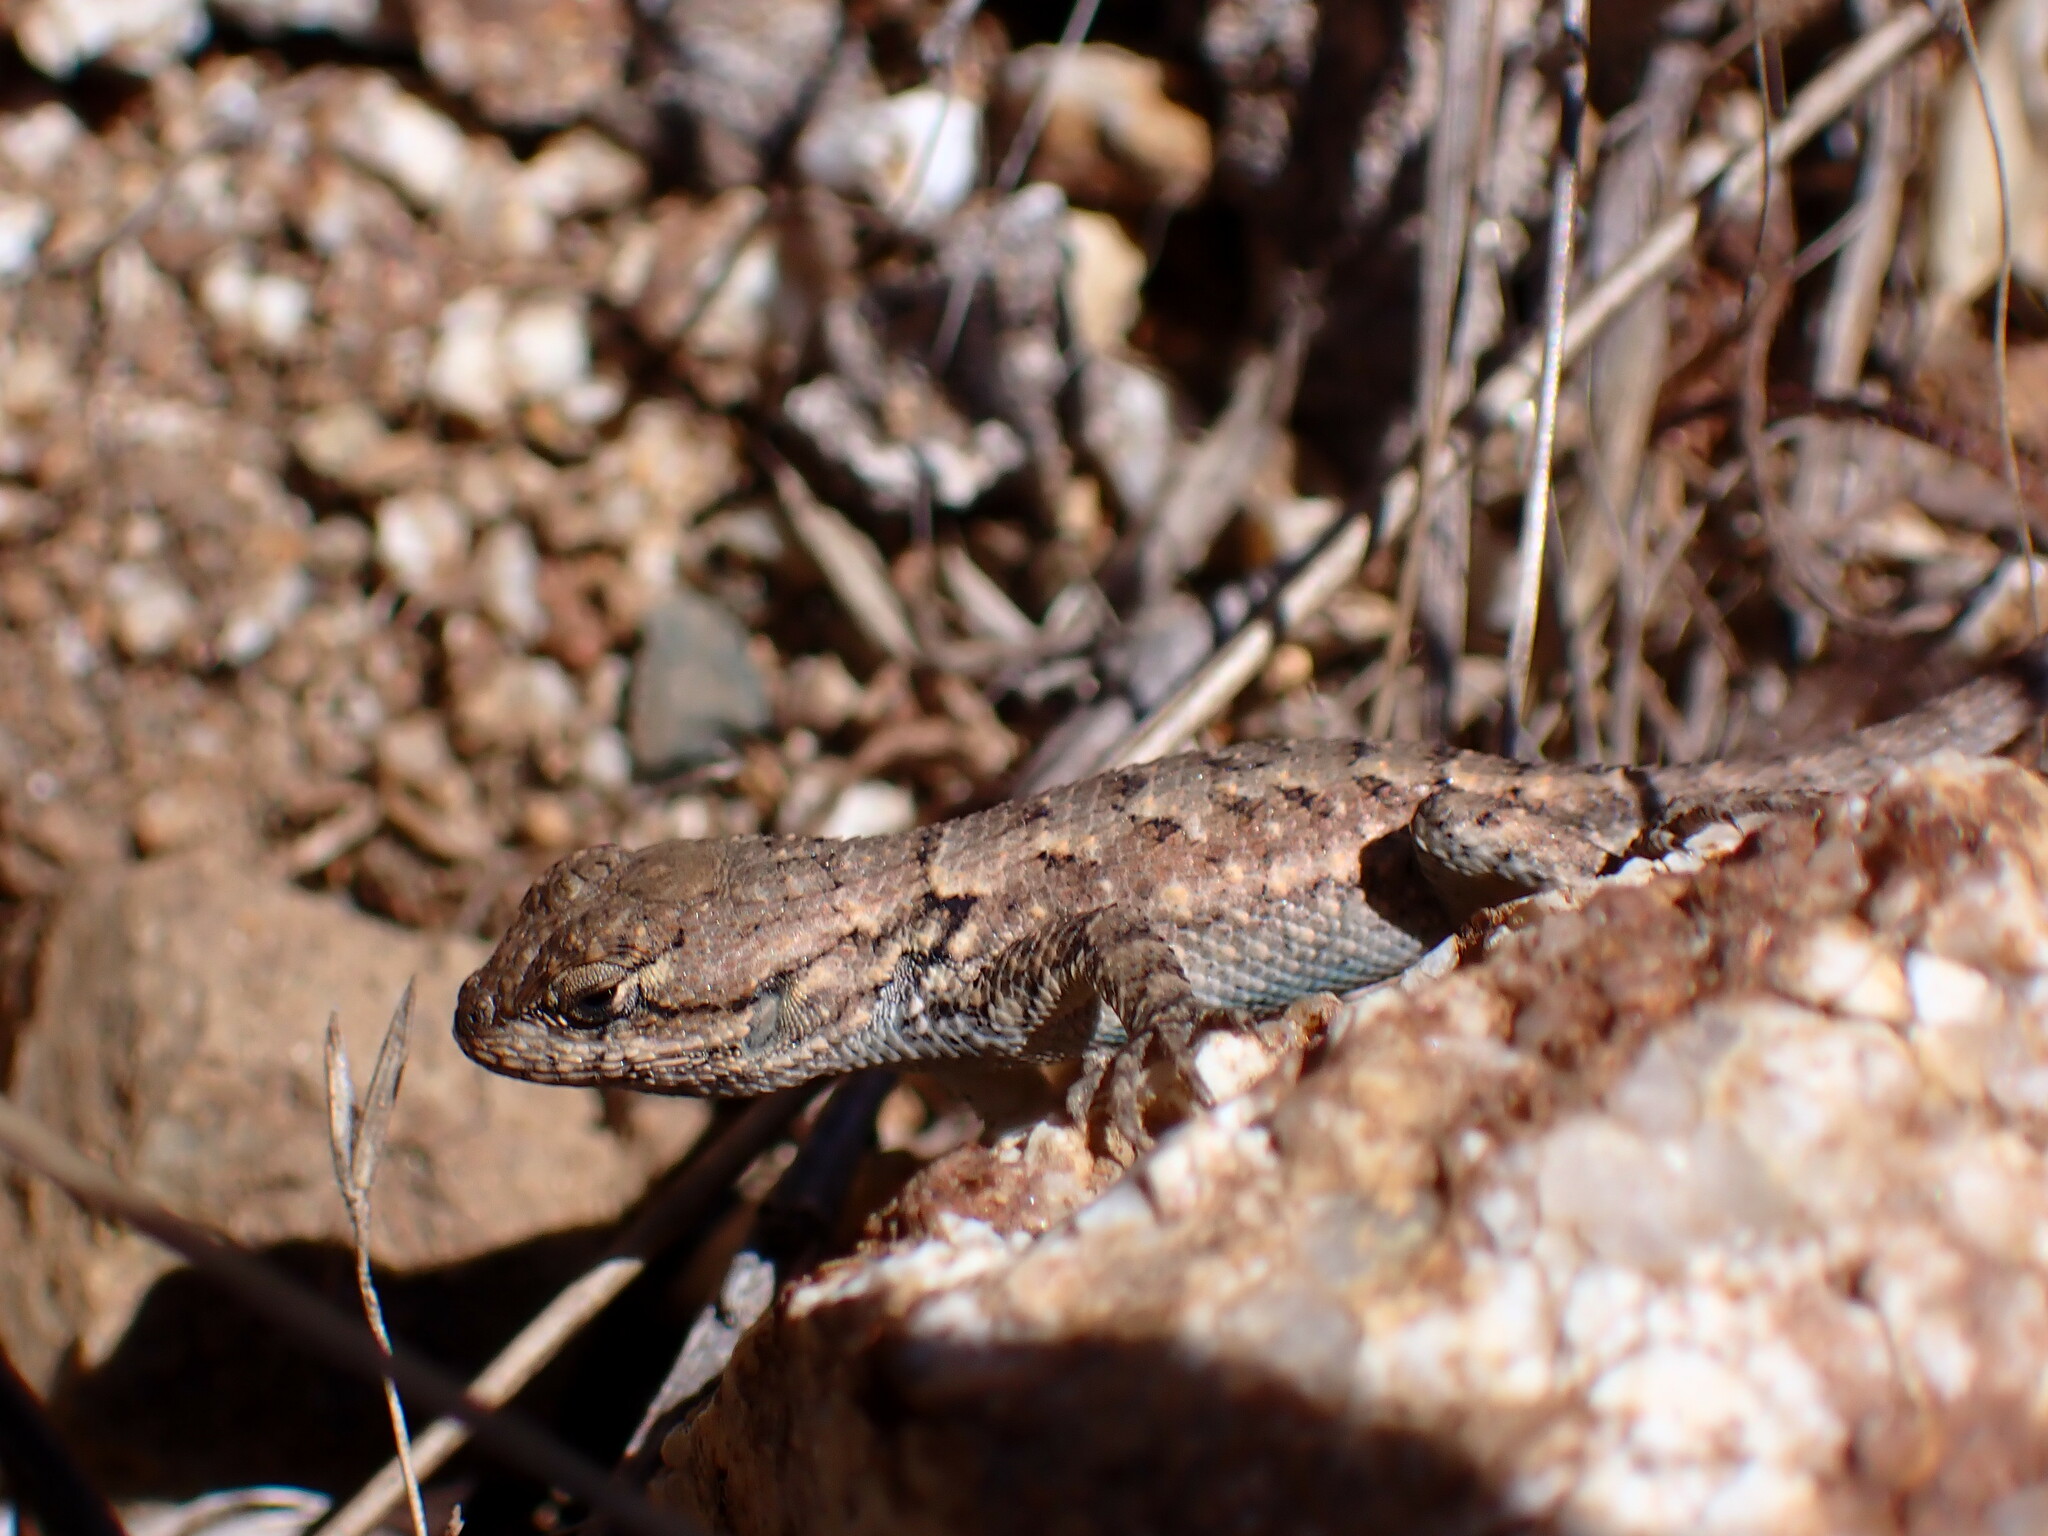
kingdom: Animalia
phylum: Chordata
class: Squamata
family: Phrynosomatidae
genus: Sceloporus
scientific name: Sceloporus occidentalis
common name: Western fence lizard
